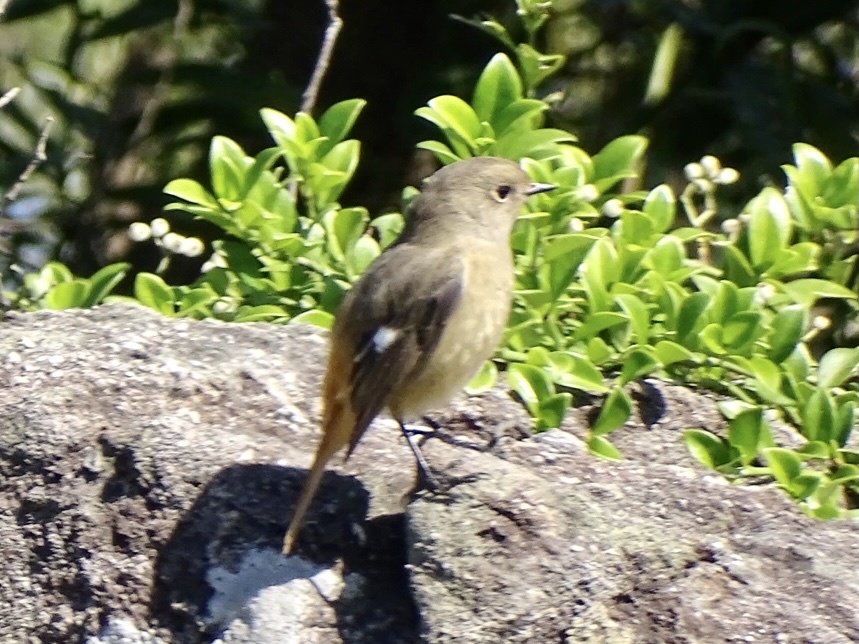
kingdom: Animalia
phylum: Chordata
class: Aves
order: Passeriformes
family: Muscicapidae
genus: Phoenicurus
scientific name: Phoenicurus auroreus
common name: Daurian redstart
